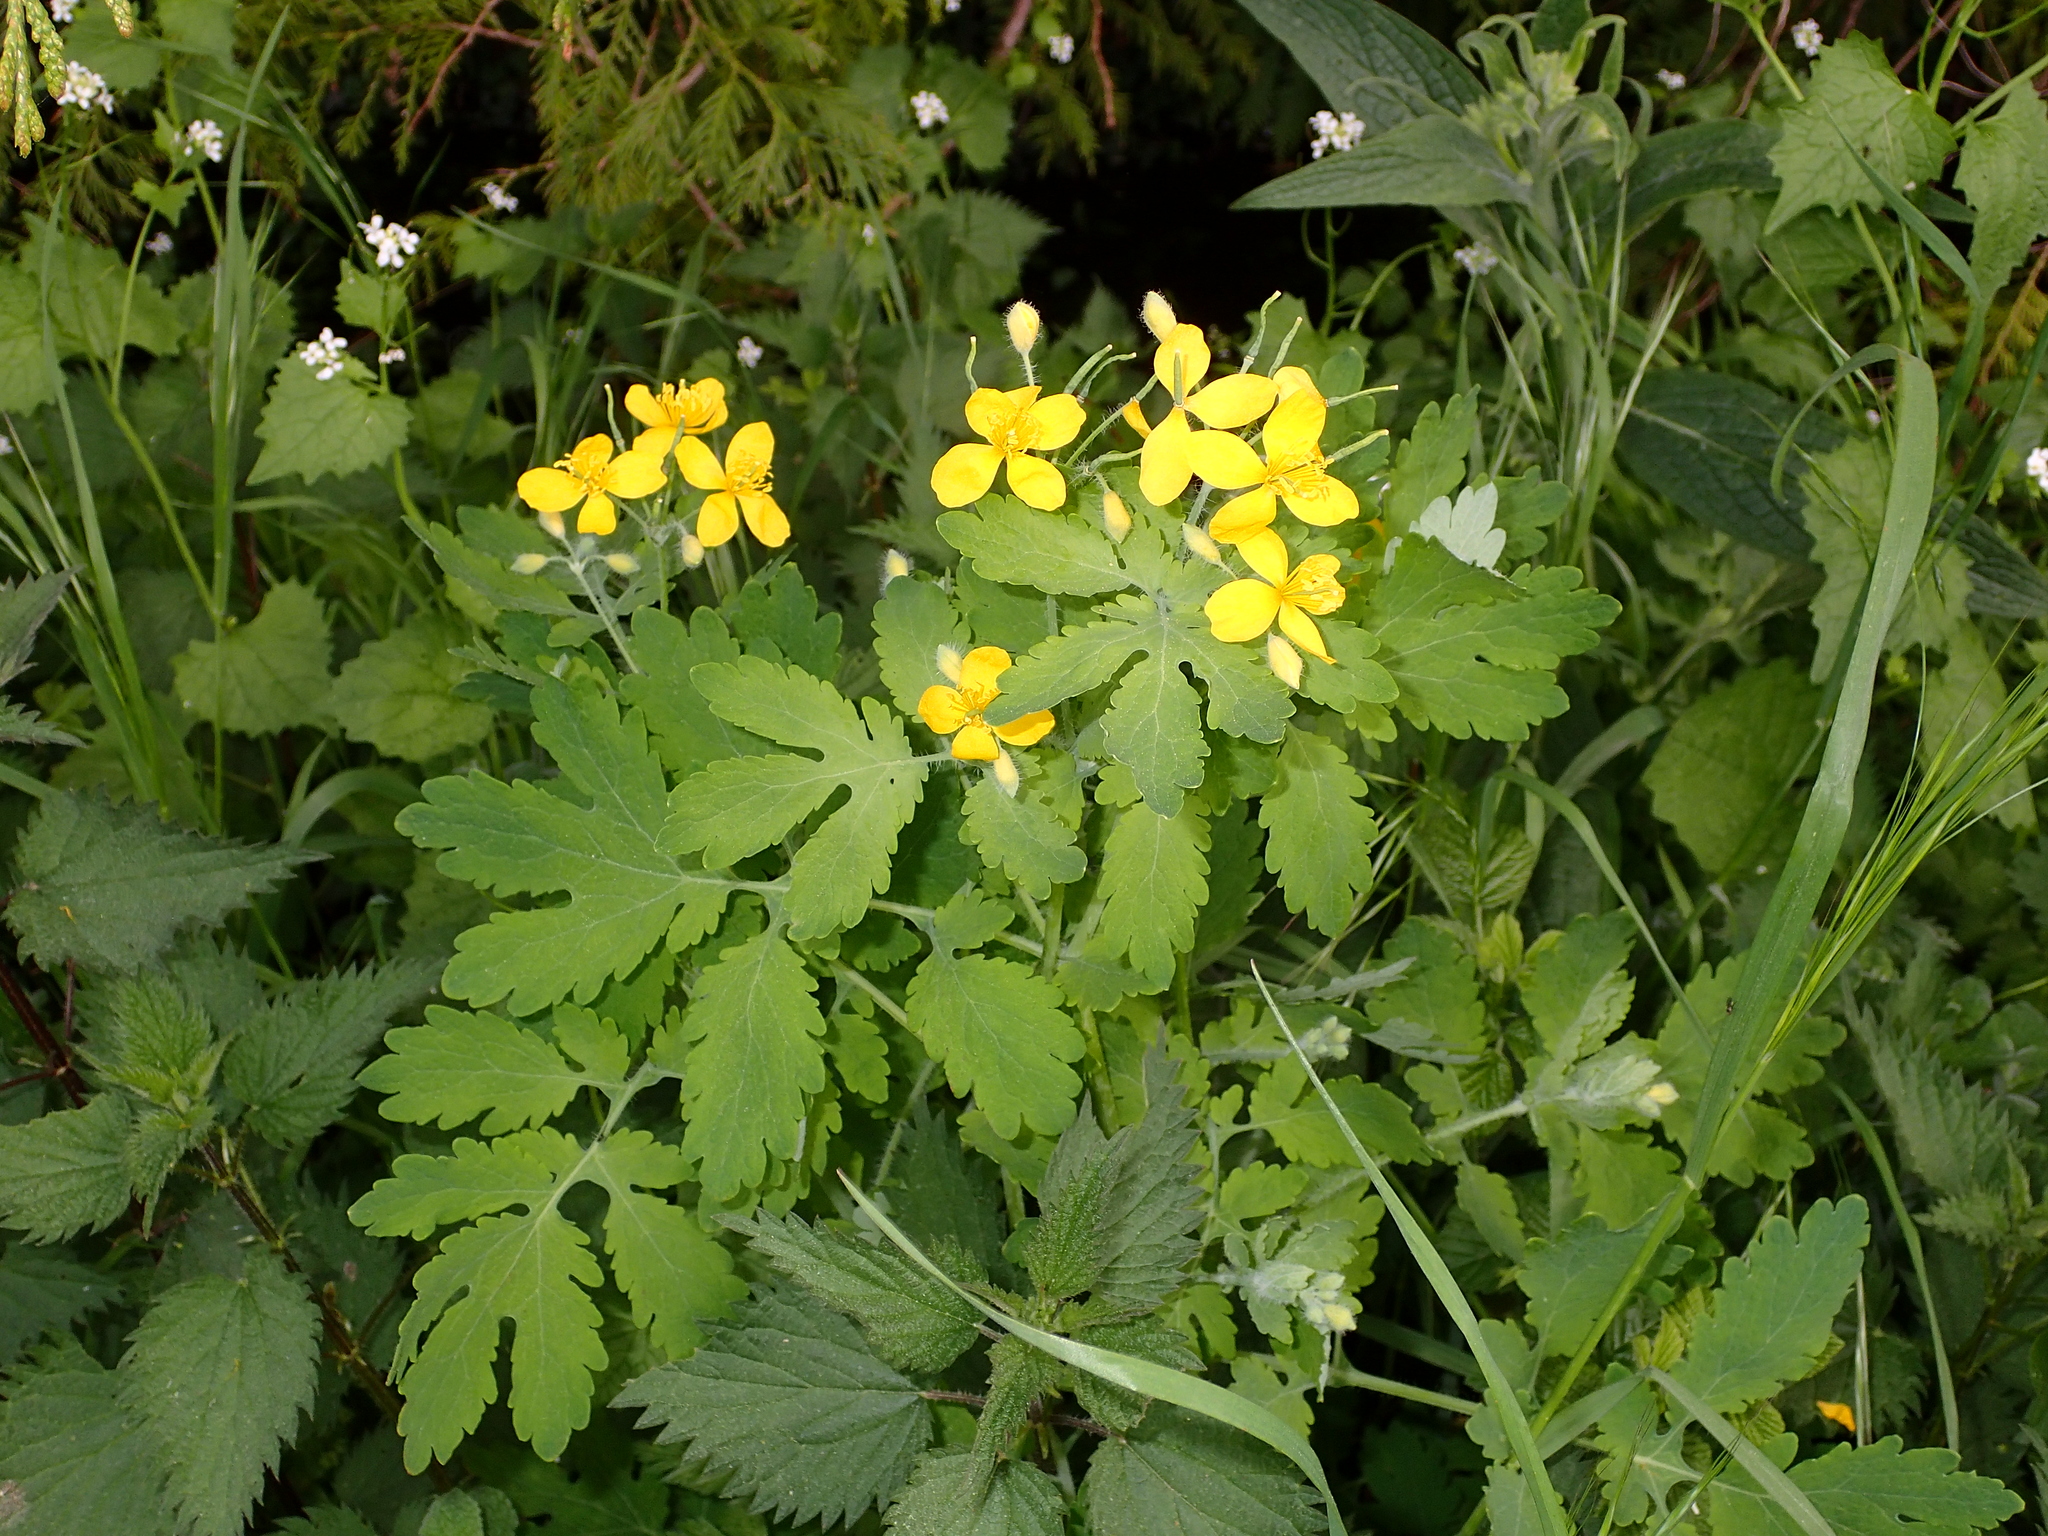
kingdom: Plantae
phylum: Tracheophyta
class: Magnoliopsida
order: Ranunculales
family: Papaveraceae
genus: Chelidonium
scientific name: Chelidonium majus
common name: Greater celandine
